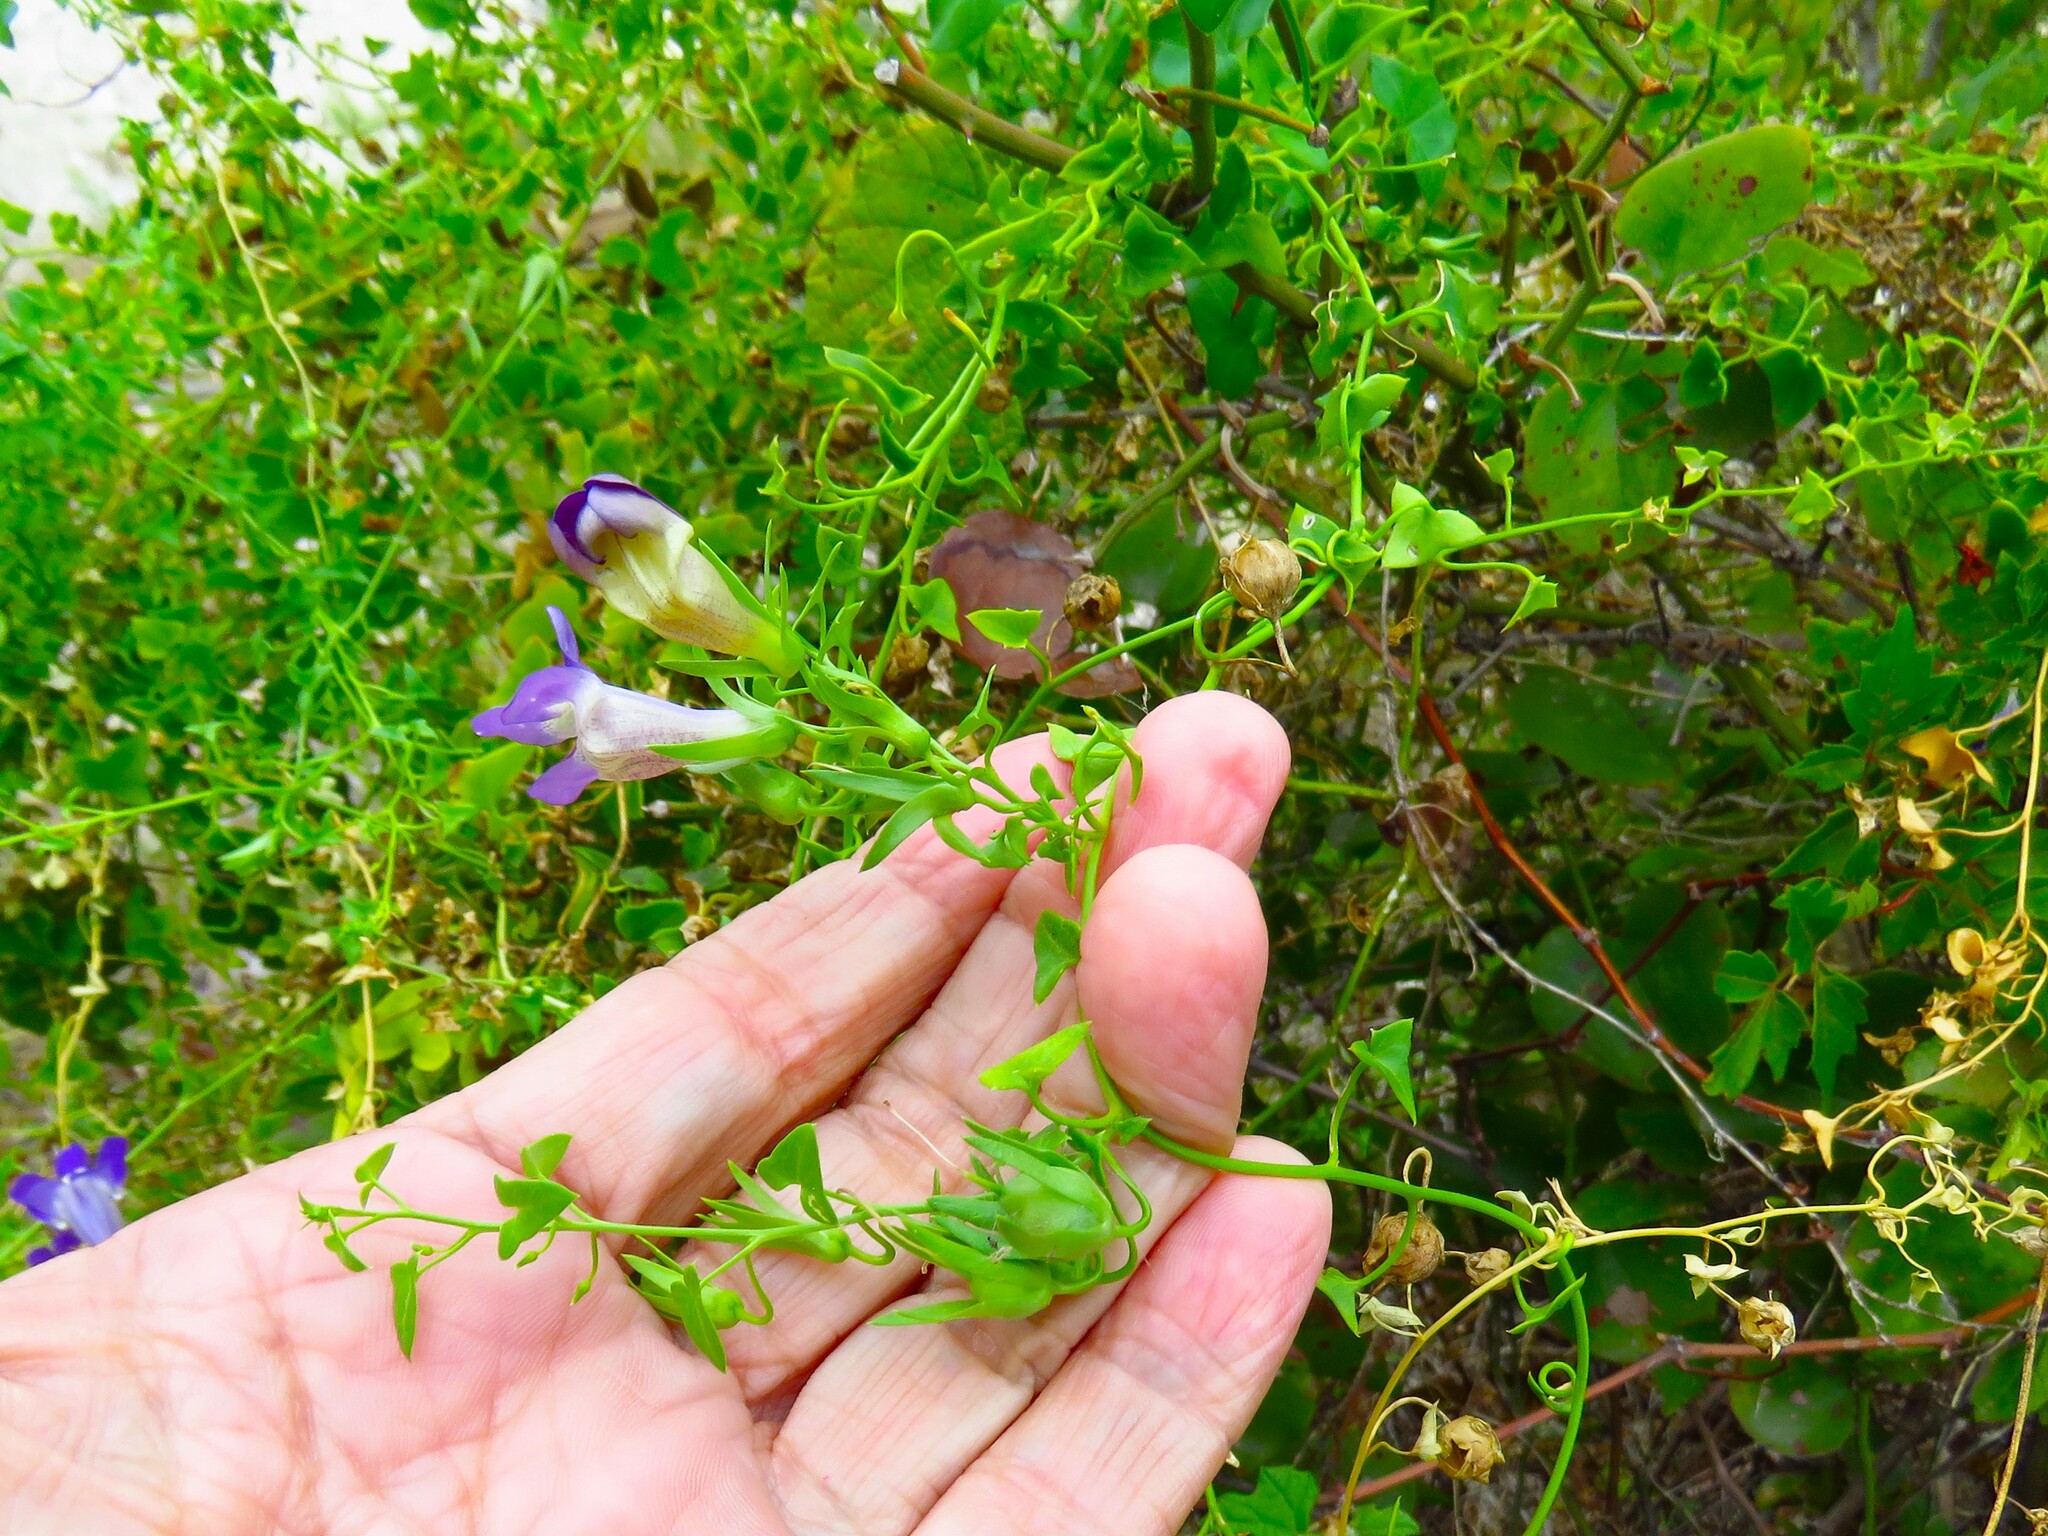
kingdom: Plantae
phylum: Tracheophyta
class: Magnoliopsida
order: Lamiales
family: Plantaginaceae
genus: Maurandella
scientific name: Maurandella antirrhiniflora
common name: Violet twining-snapdragon
